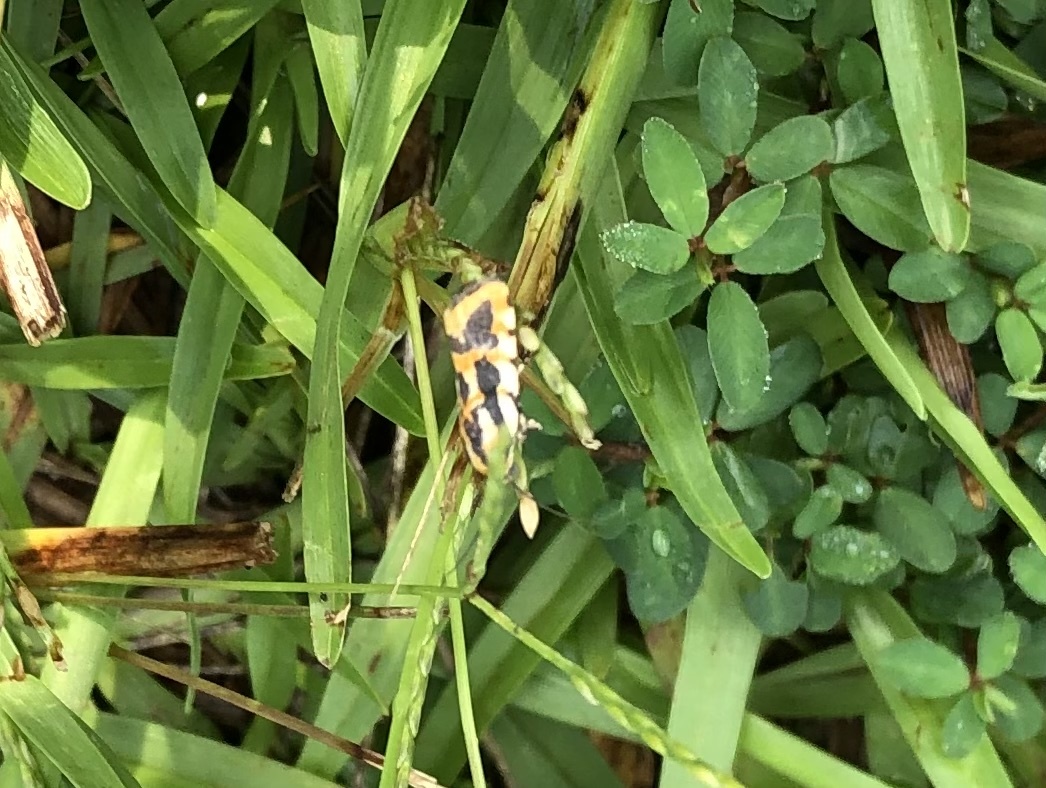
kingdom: Animalia
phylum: Arthropoda
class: Insecta
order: Lepidoptera
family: Noctuidae
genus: Acontia
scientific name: Acontia leo
